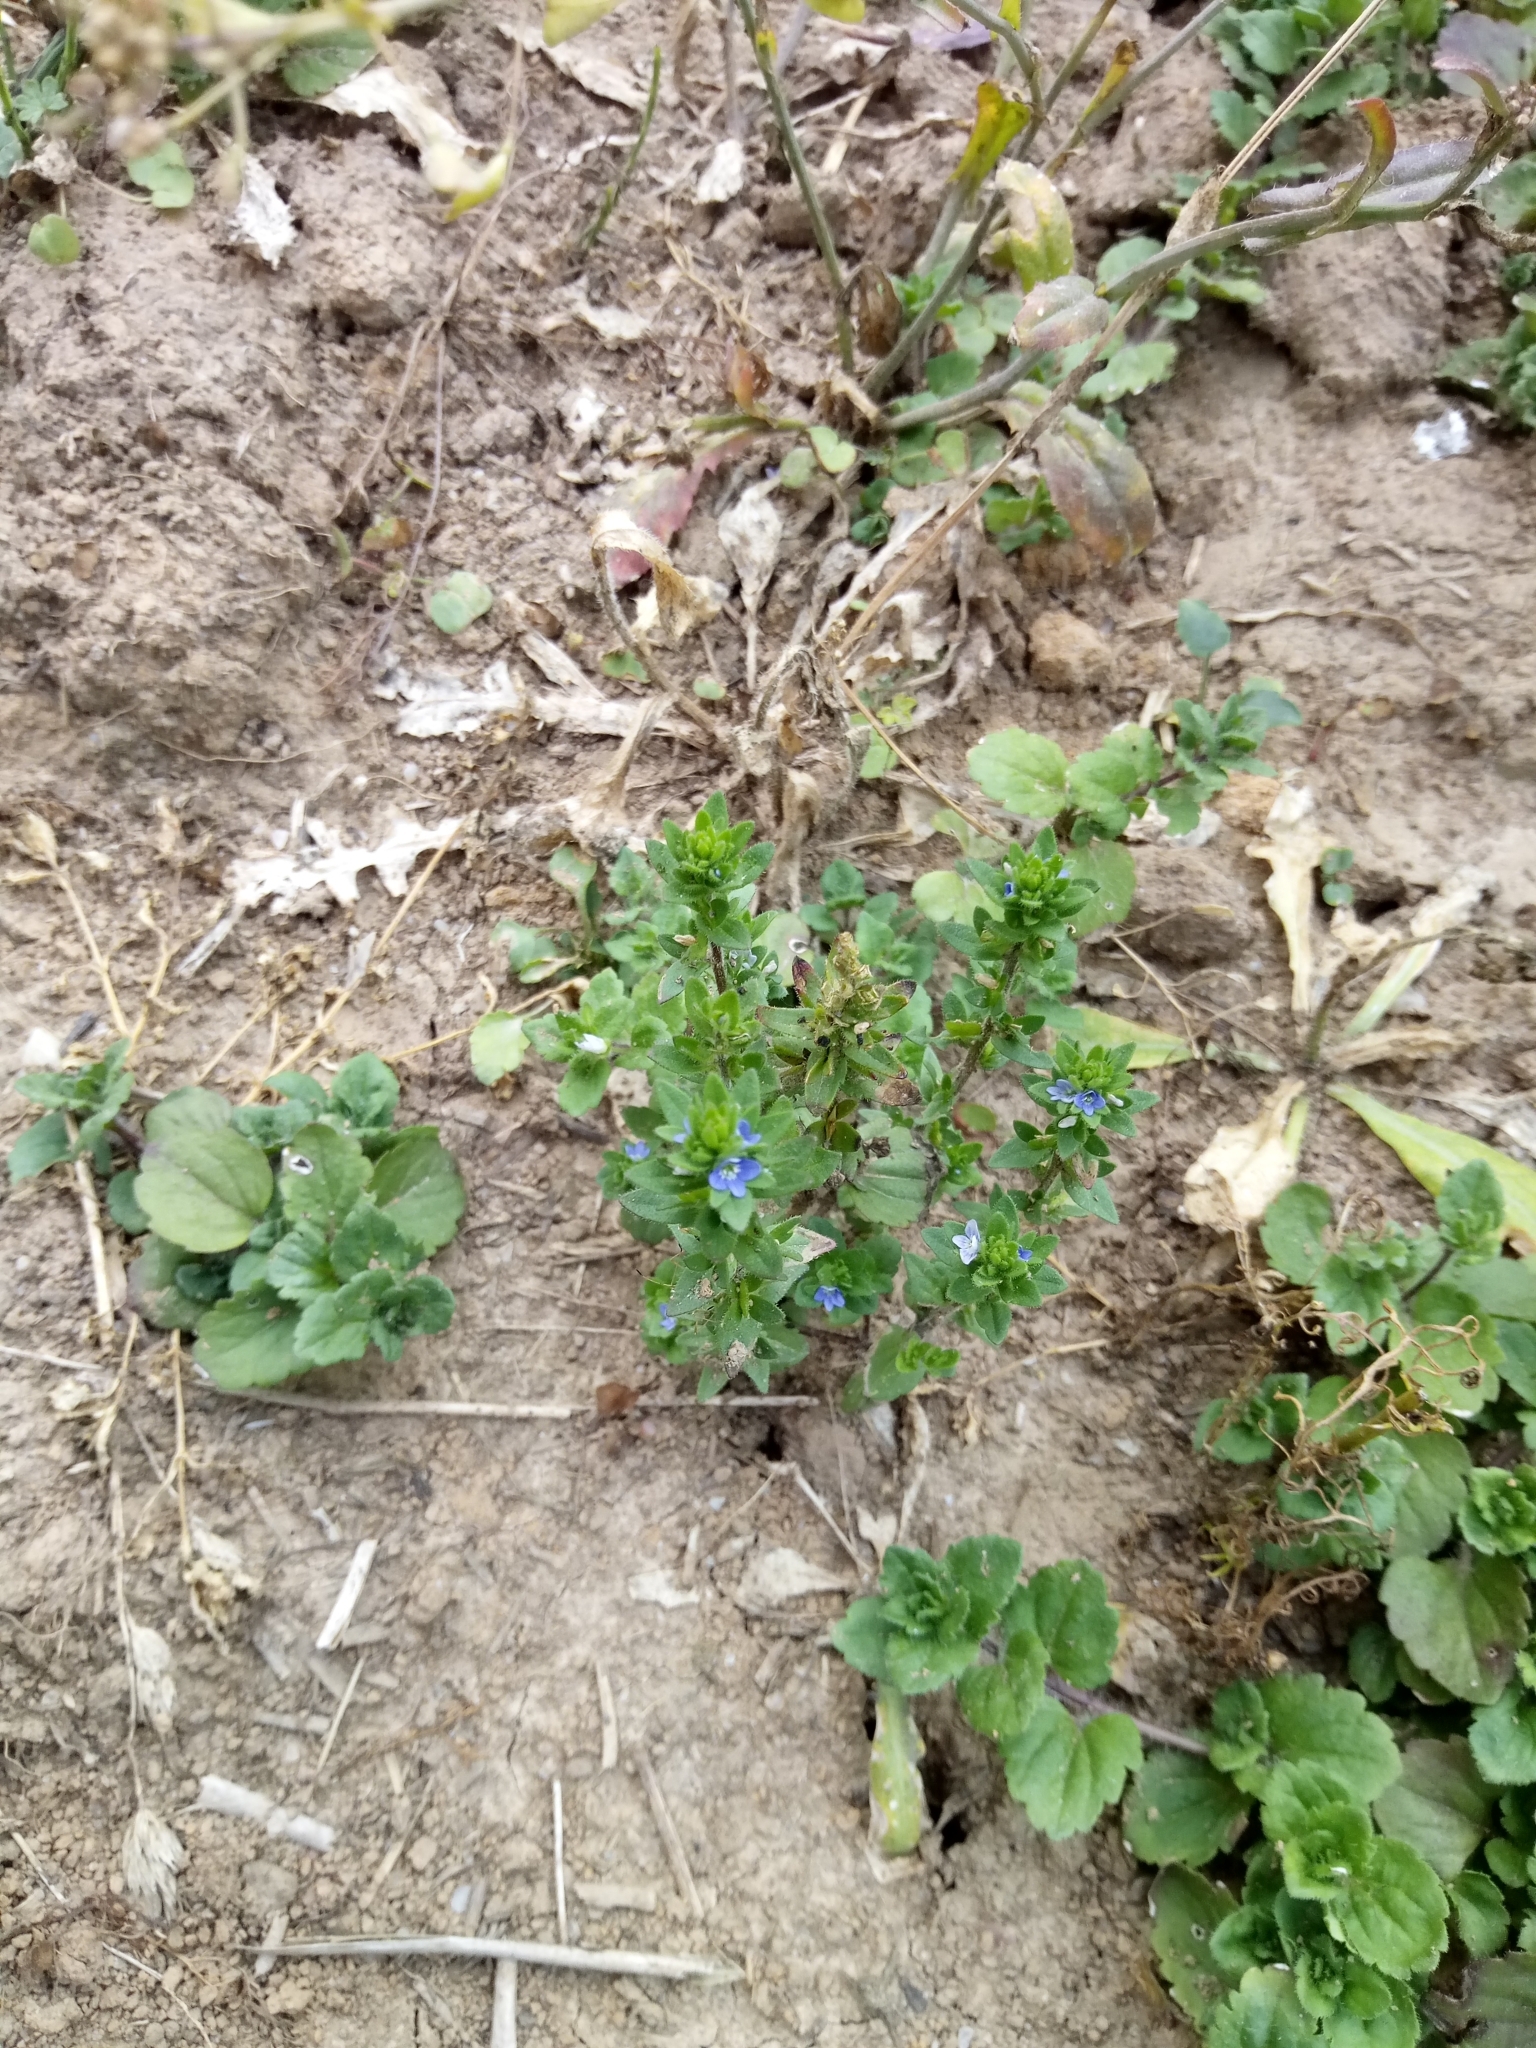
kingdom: Plantae
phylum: Tracheophyta
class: Magnoliopsida
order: Lamiales
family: Plantaginaceae
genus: Veronica
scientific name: Veronica arvensis
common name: Corn speedwell
